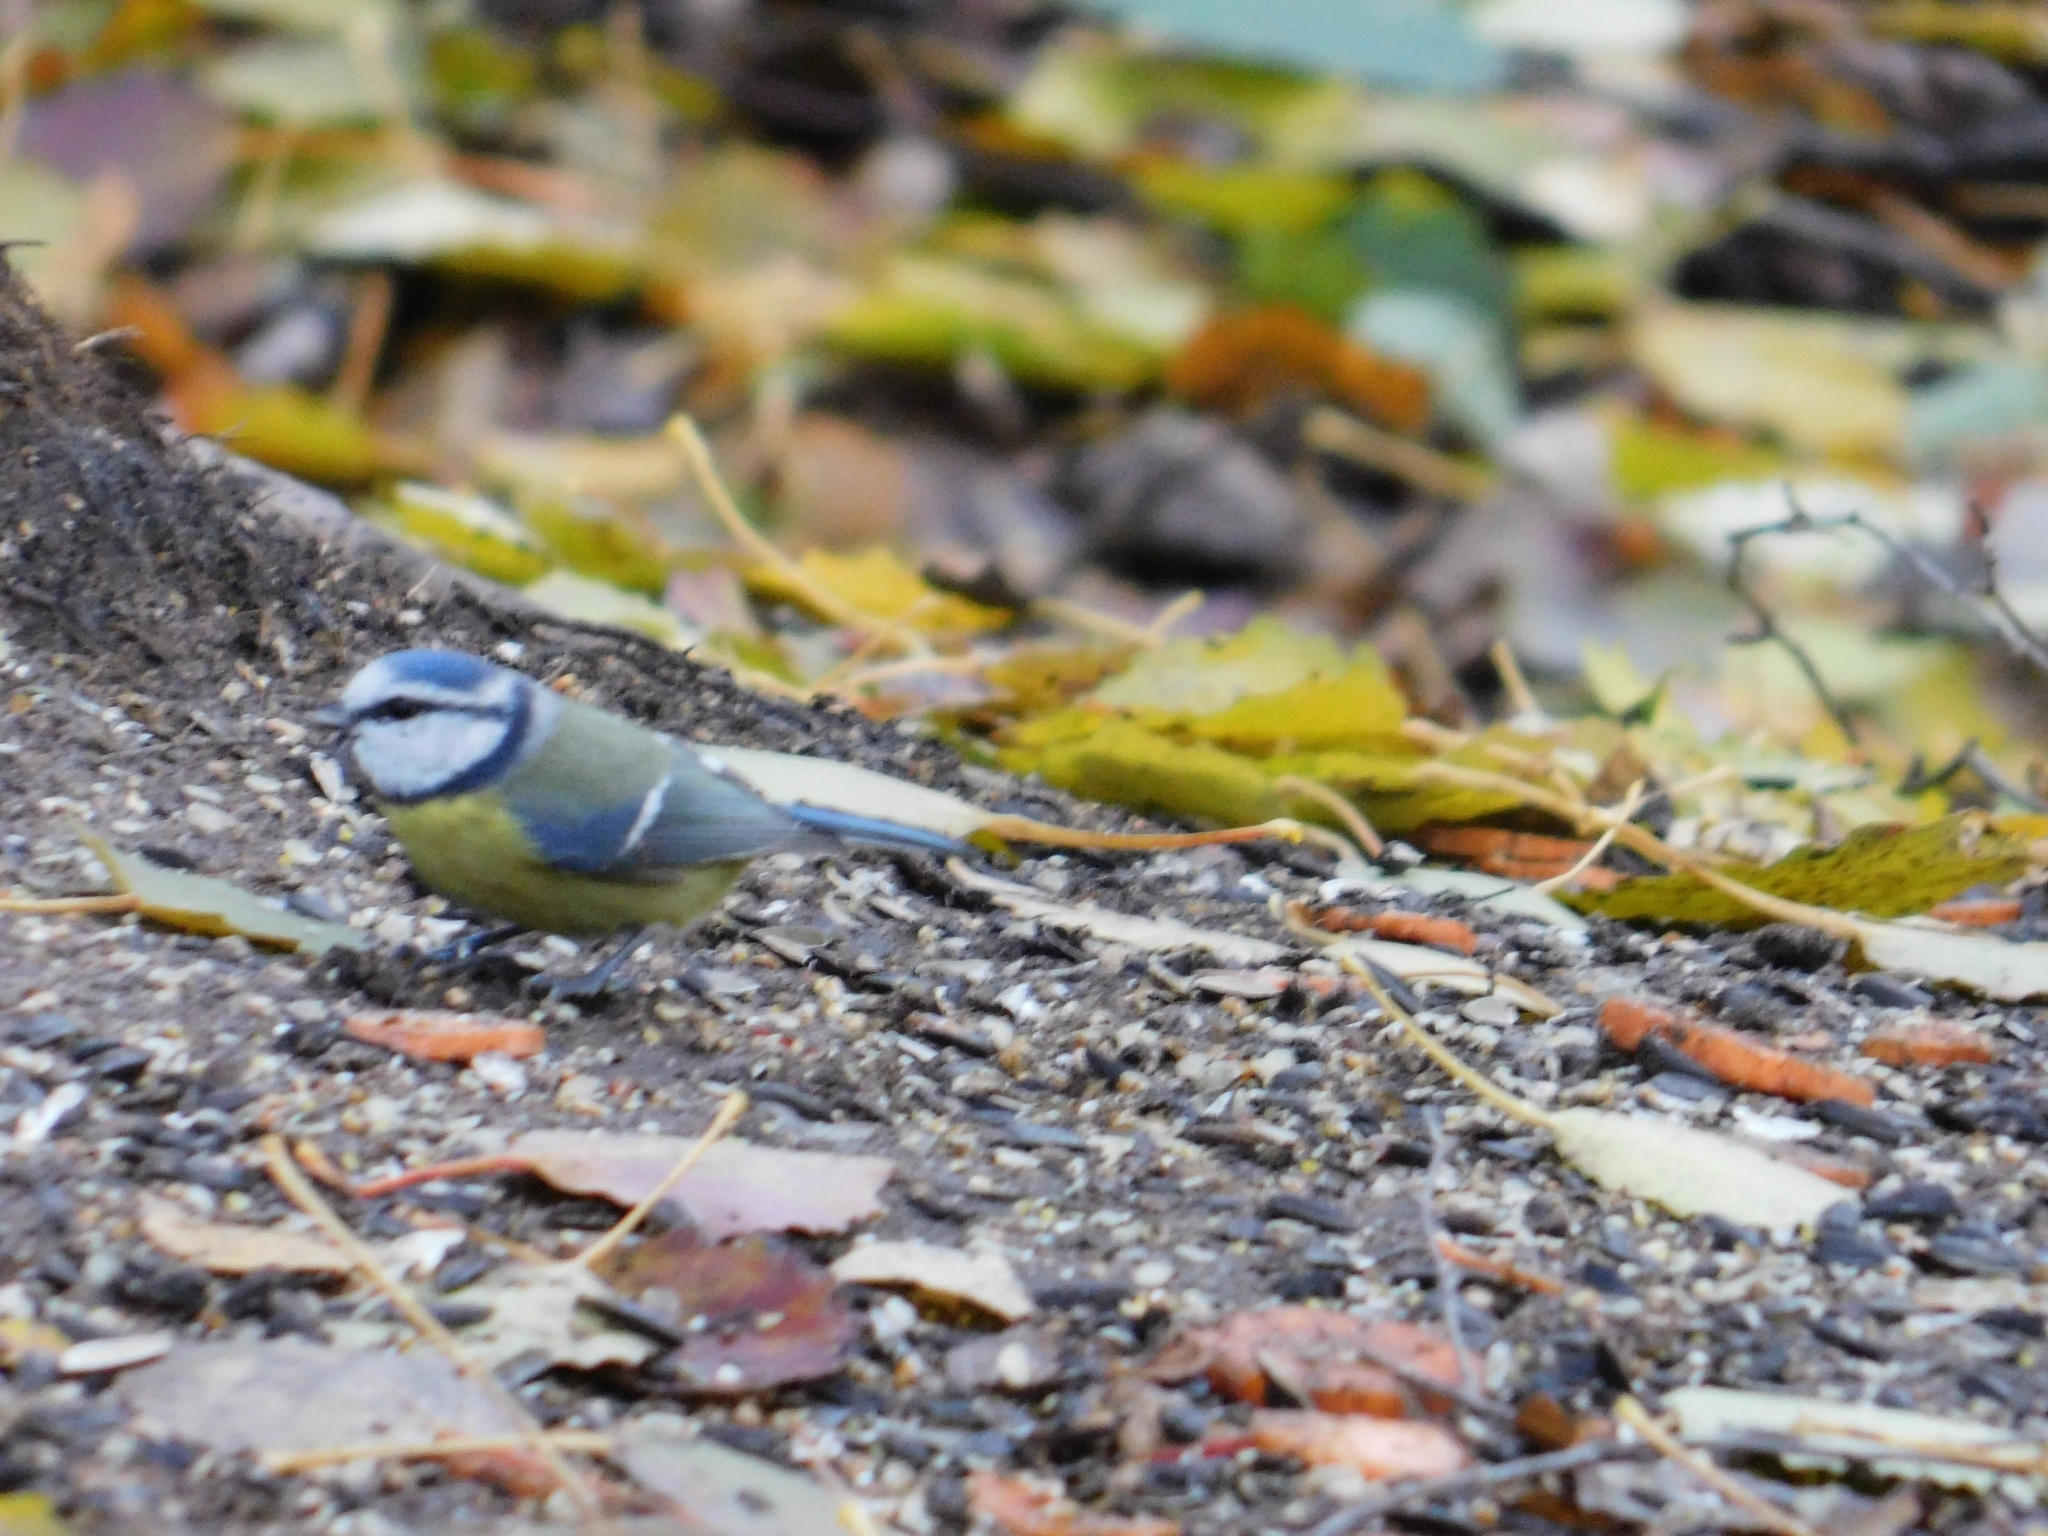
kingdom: Animalia
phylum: Chordata
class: Aves
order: Passeriformes
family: Paridae
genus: Cyanistes
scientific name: Cyanistes caeruleus
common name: Eurasian blue tit
